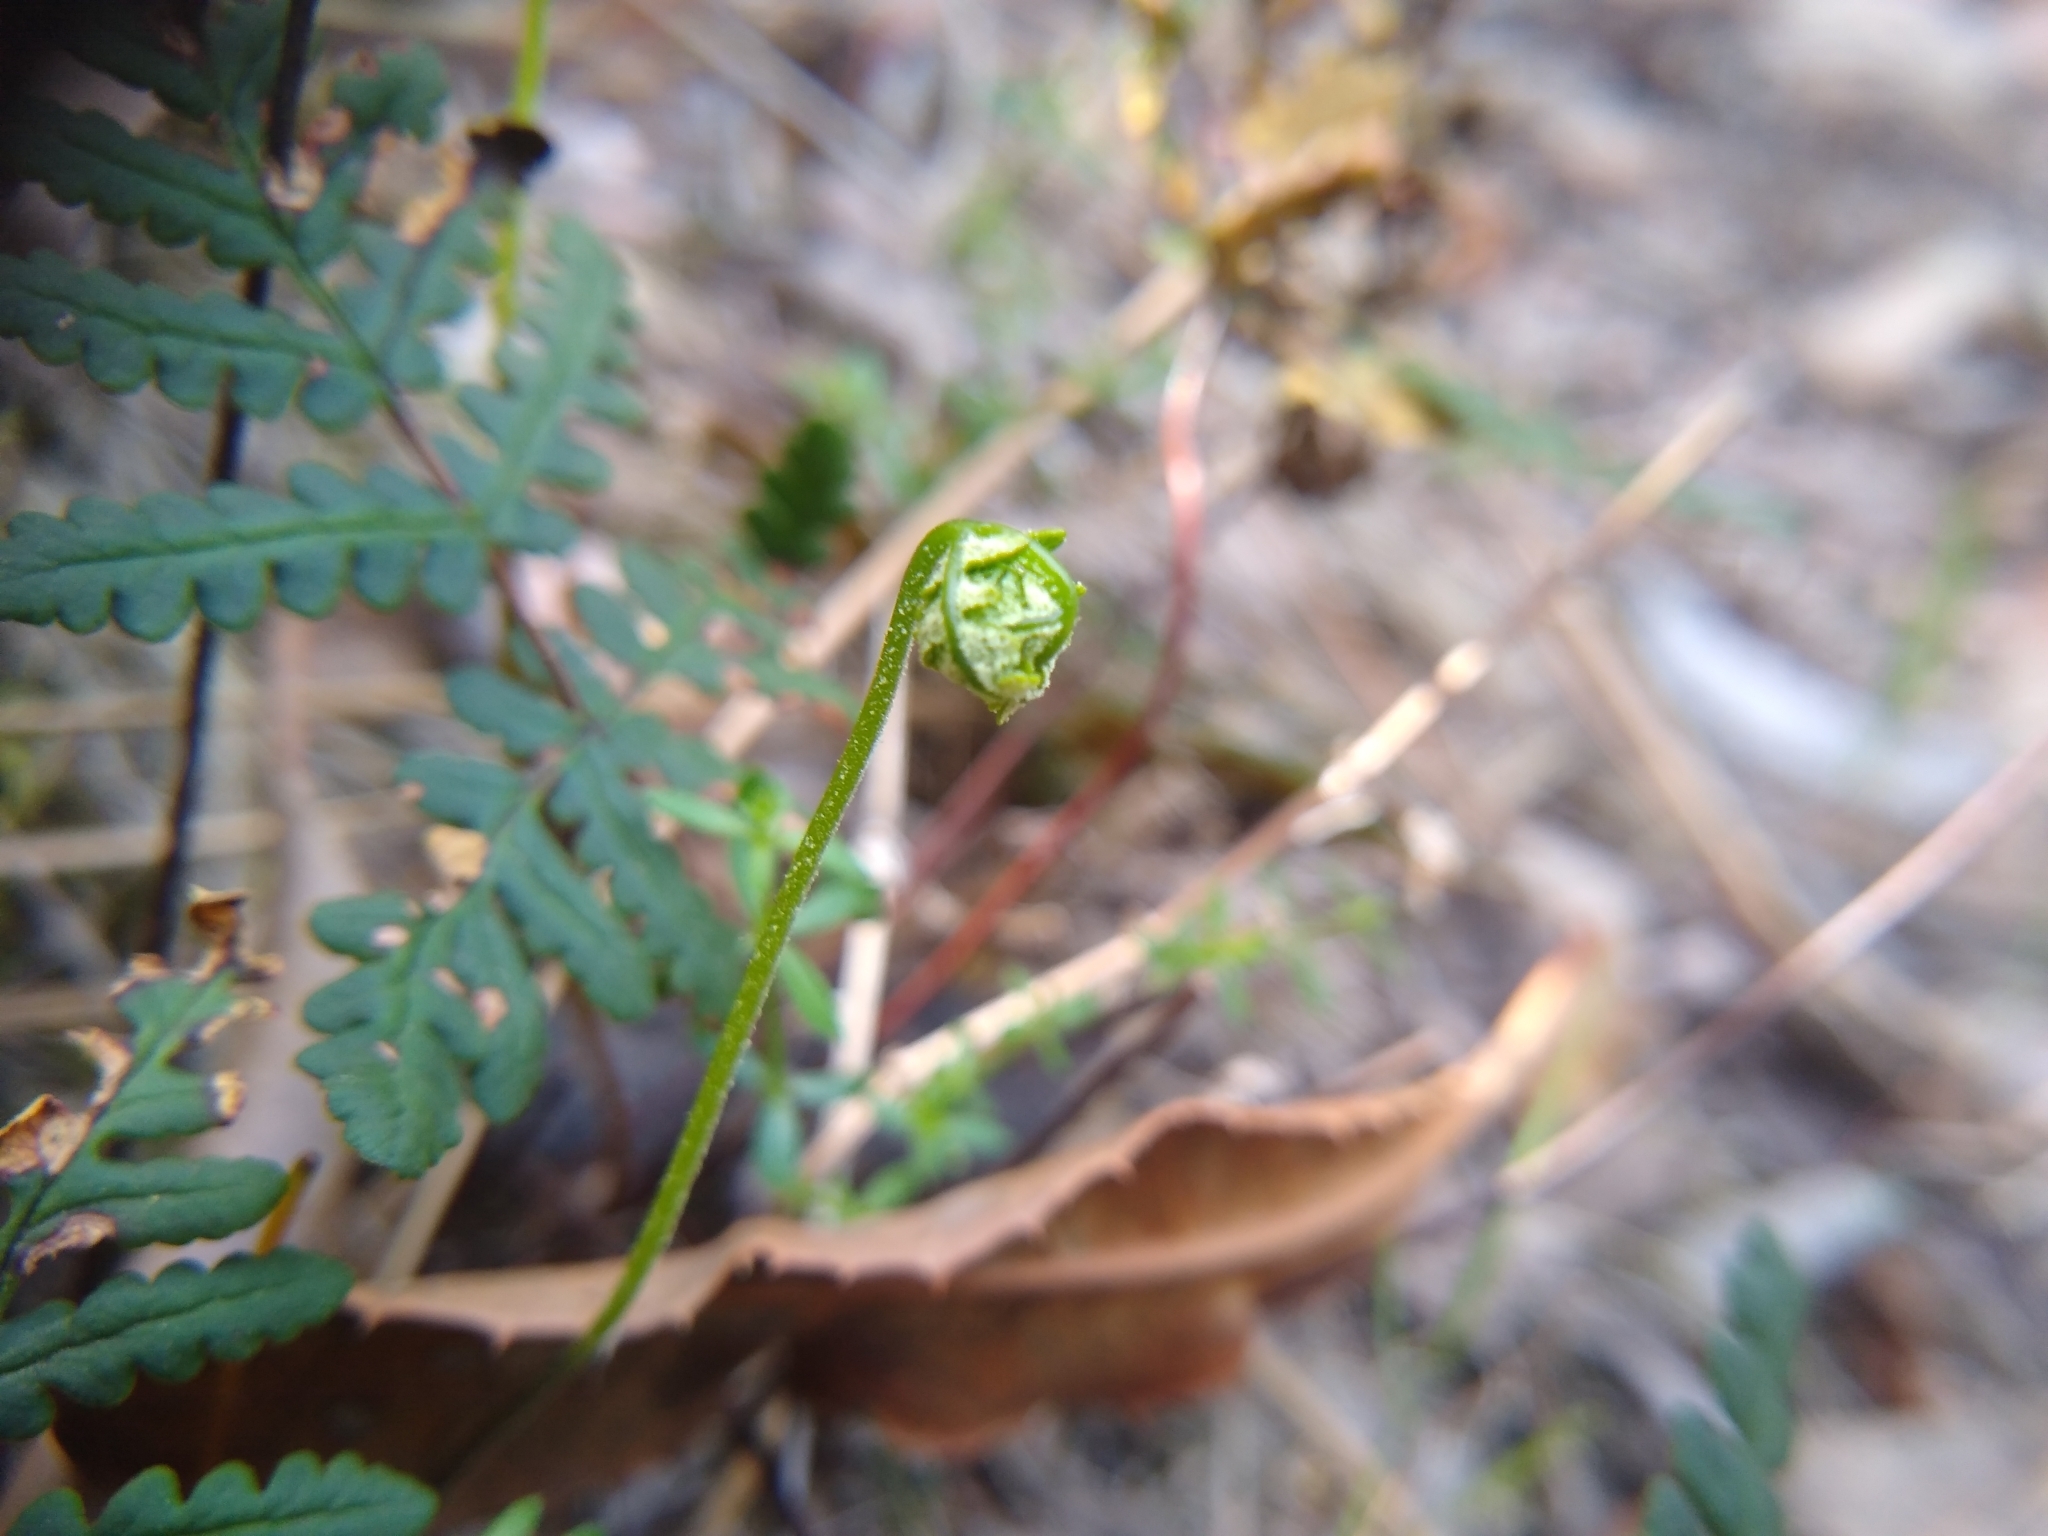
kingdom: Plantae
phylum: Tracheophyta
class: Polypodiopsida
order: Polypodiales
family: Pteridaceae
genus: Pentagramma
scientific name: Pentagramma triangularis
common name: Gold fern
